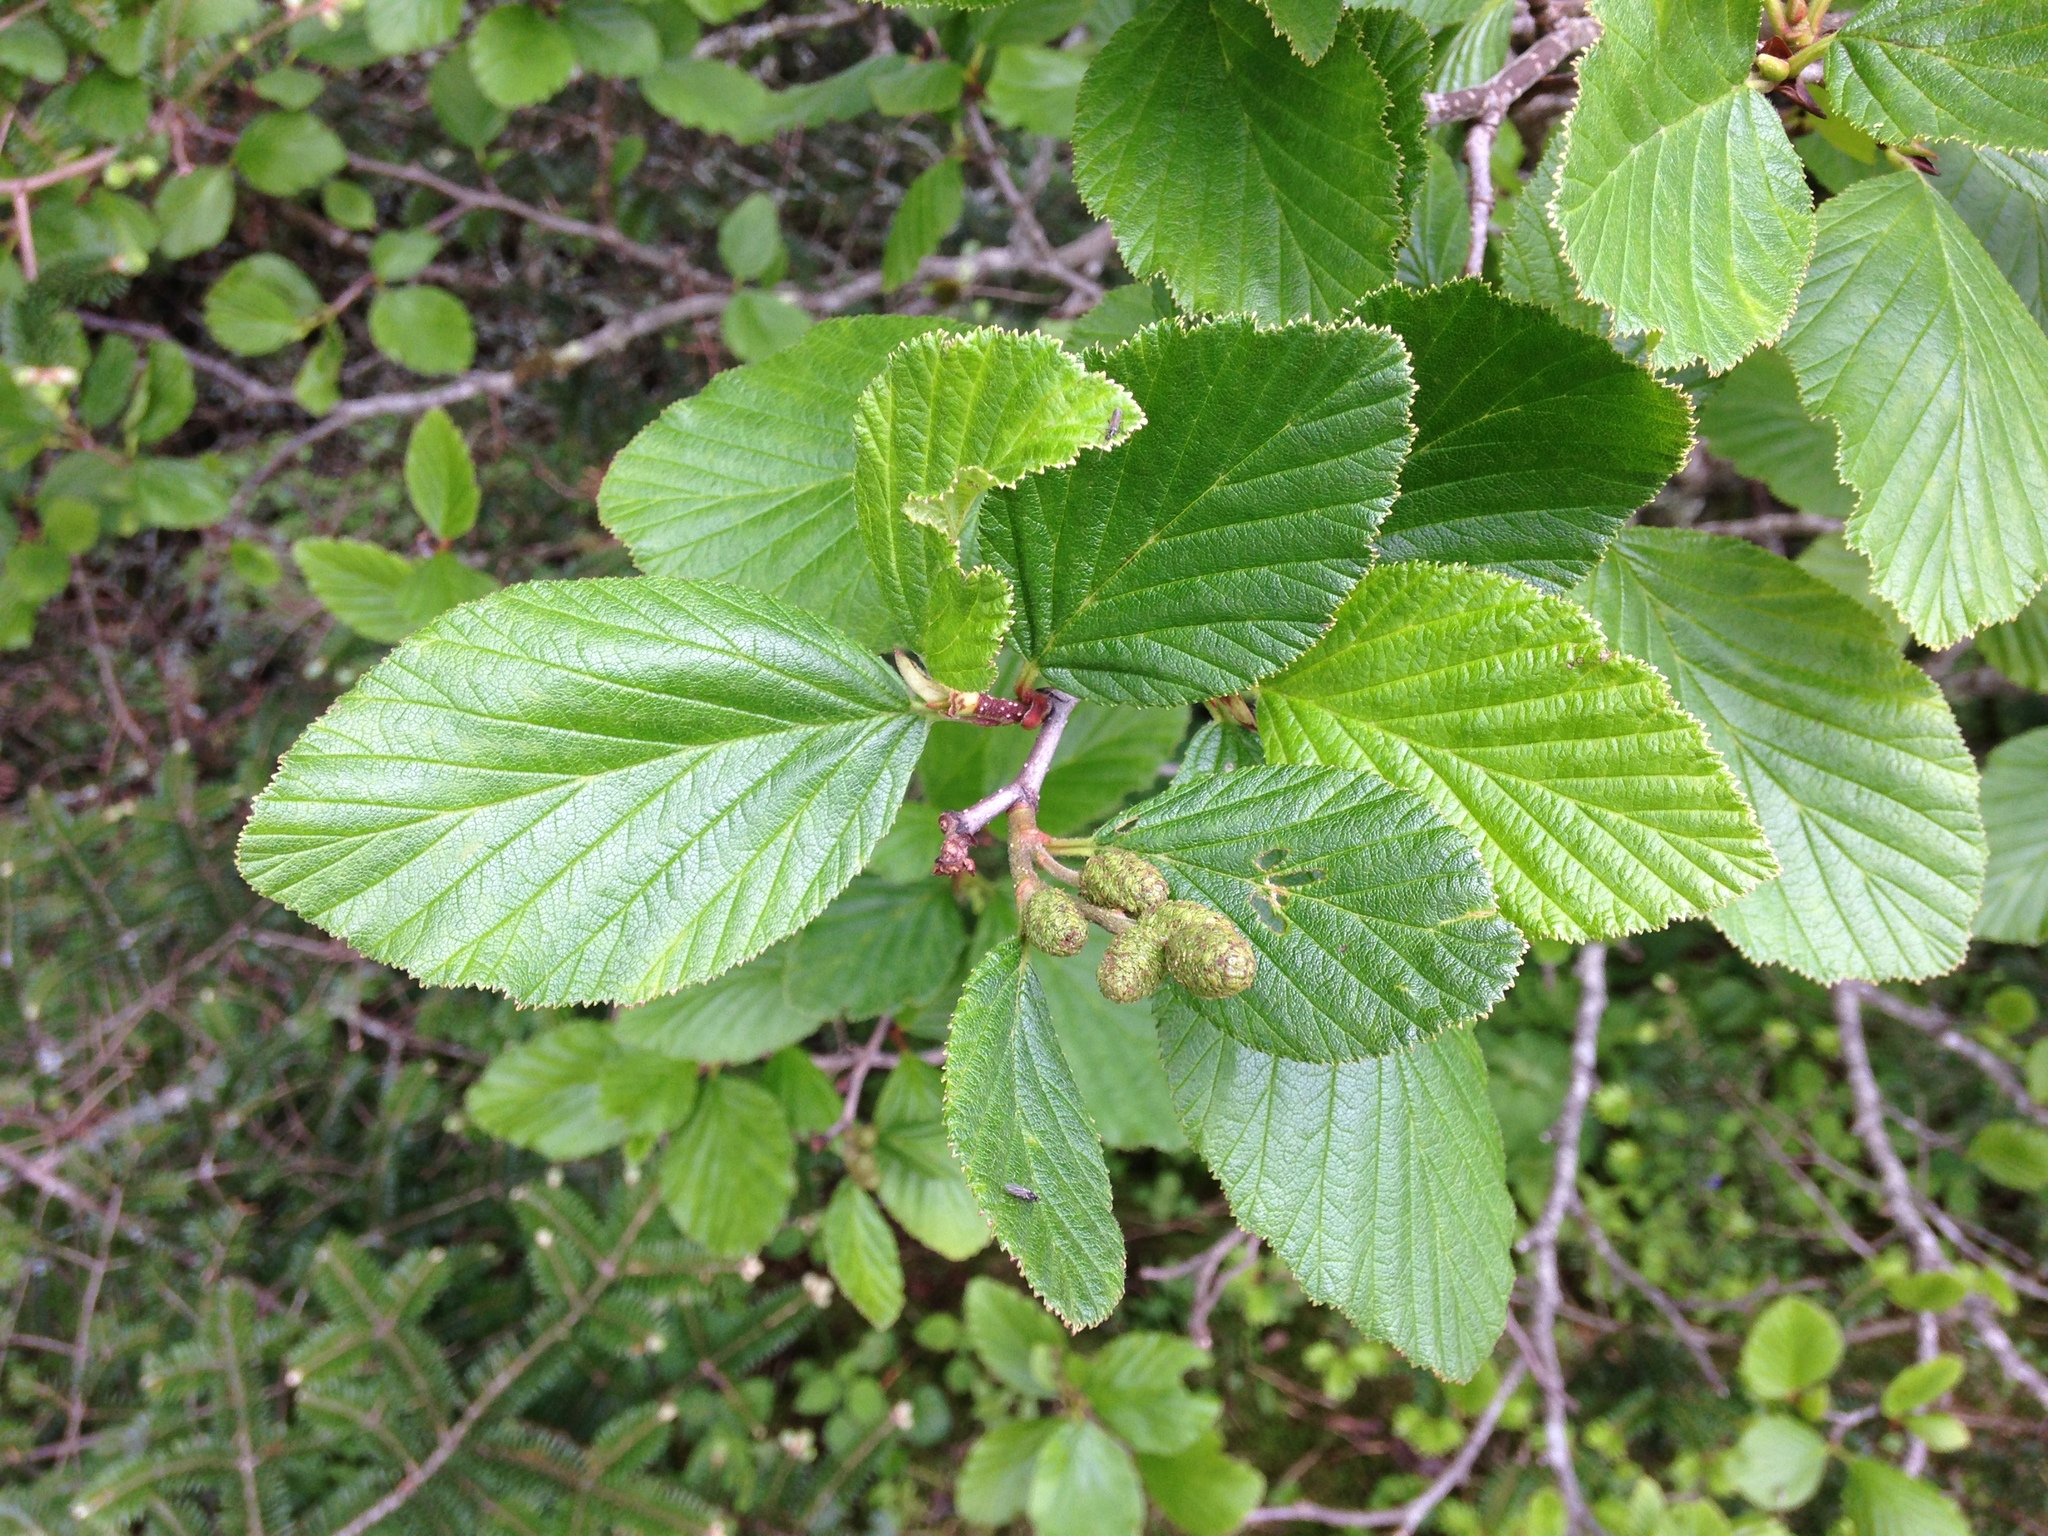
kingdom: Plantae
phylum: Tracheophyta
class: Magnoliopsida
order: Fagales
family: Betulaceae
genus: Alnus
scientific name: Alnus alnobetula
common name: Green alder
